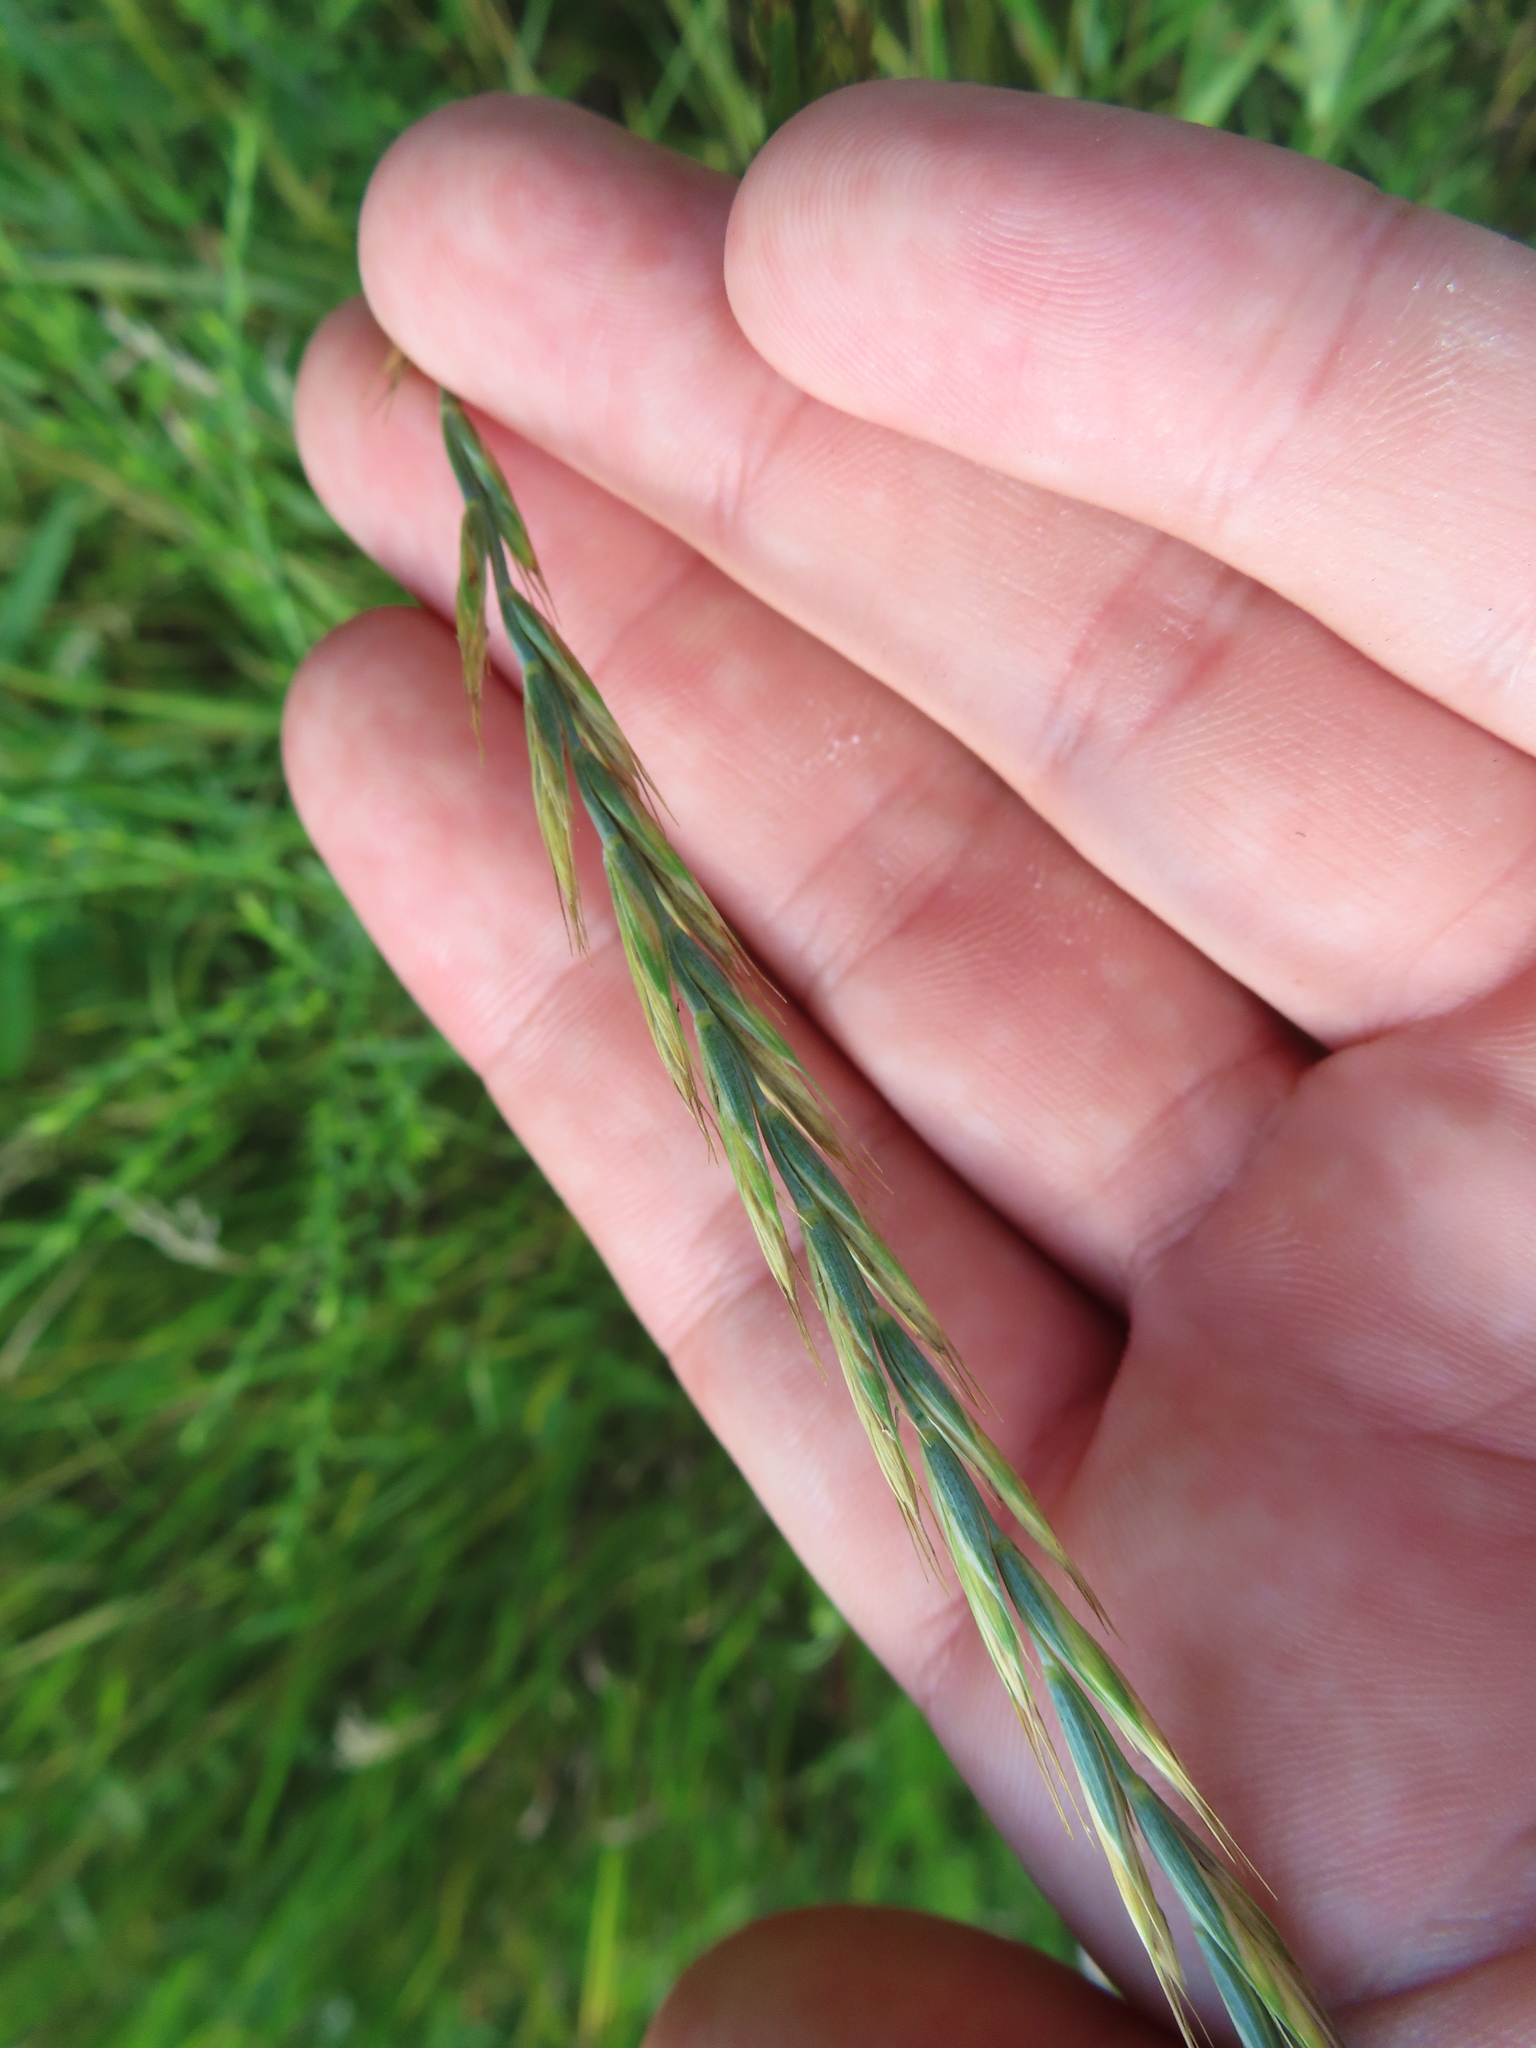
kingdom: Plantae
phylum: Tracheophyta
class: Liliopsida
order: Poales
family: Poaceae
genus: Elymus
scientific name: Elymus repens
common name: Quackgrass
